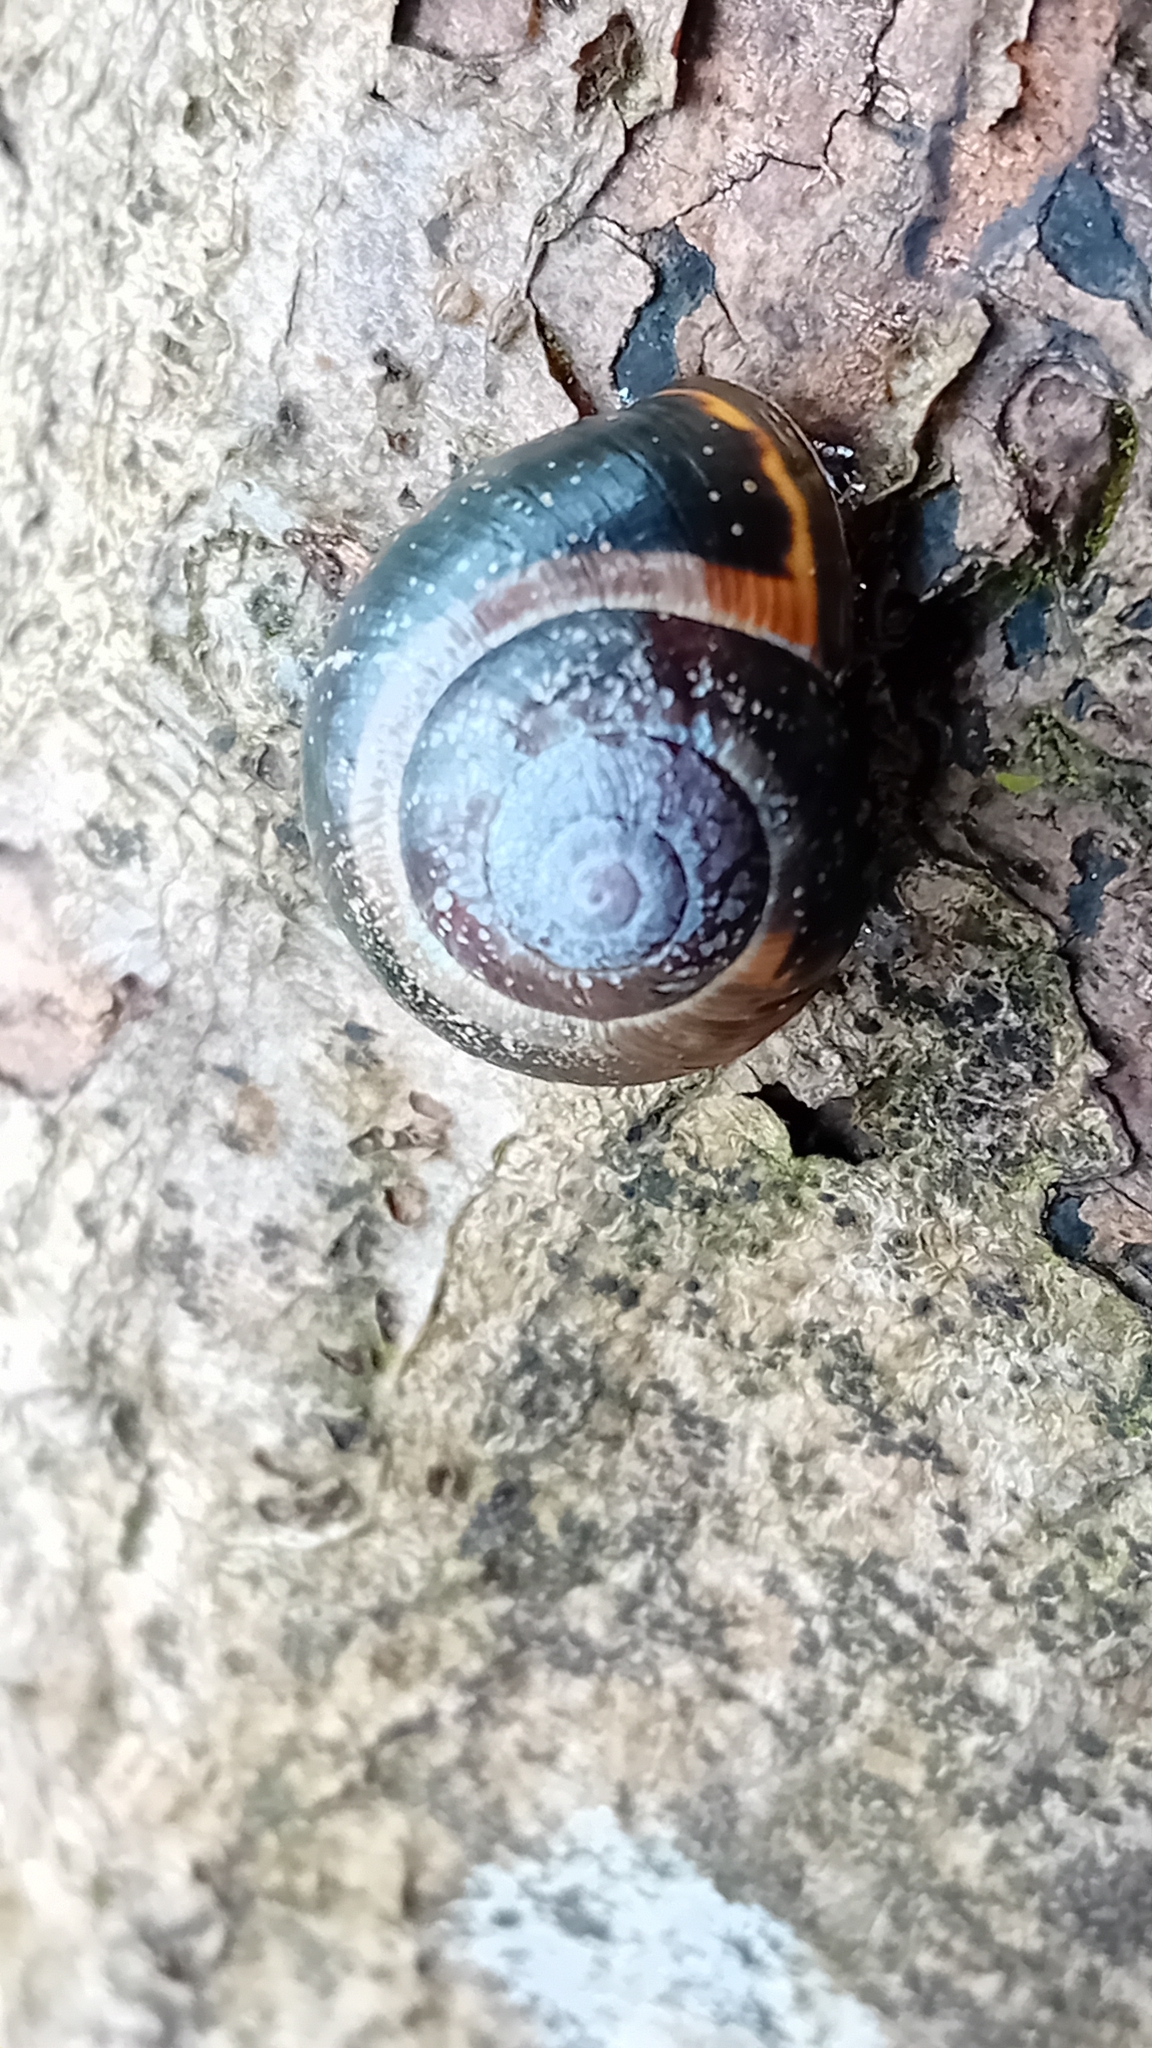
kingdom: Animalia
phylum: Mollusca
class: Gastropoda
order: Stylommatophora
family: Helicidae
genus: Cepaea
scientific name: Cepaea nemoralis
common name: Grovesnail
